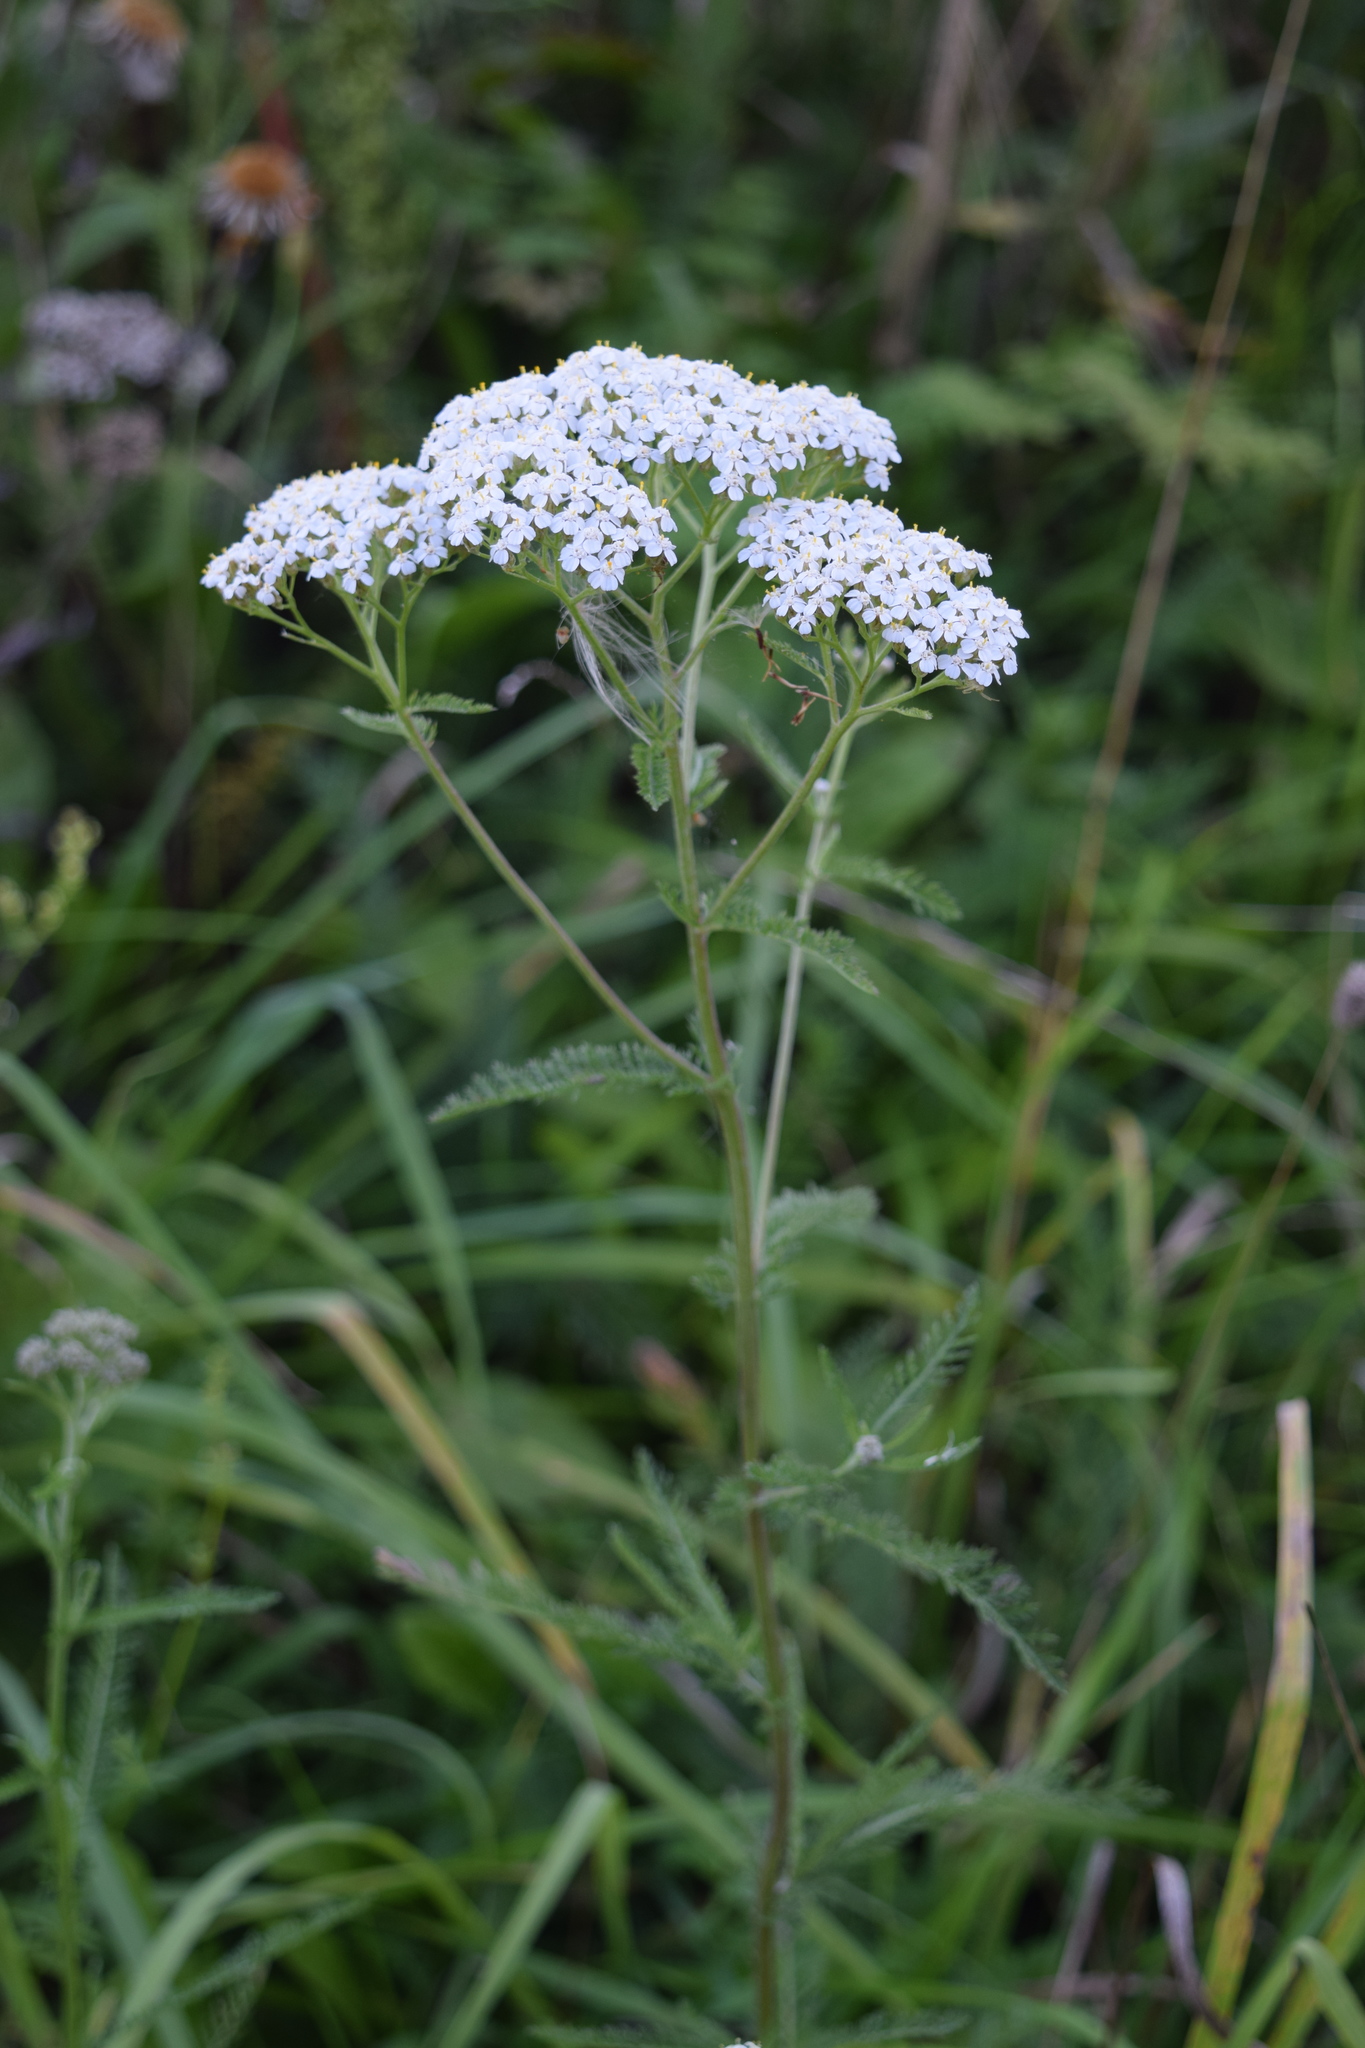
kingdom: Plantae
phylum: Tracheophyta
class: Magnoliopsida
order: Asterales
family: Asteraceae
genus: Achillea
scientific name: Achillea millefolium
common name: Yarrow
